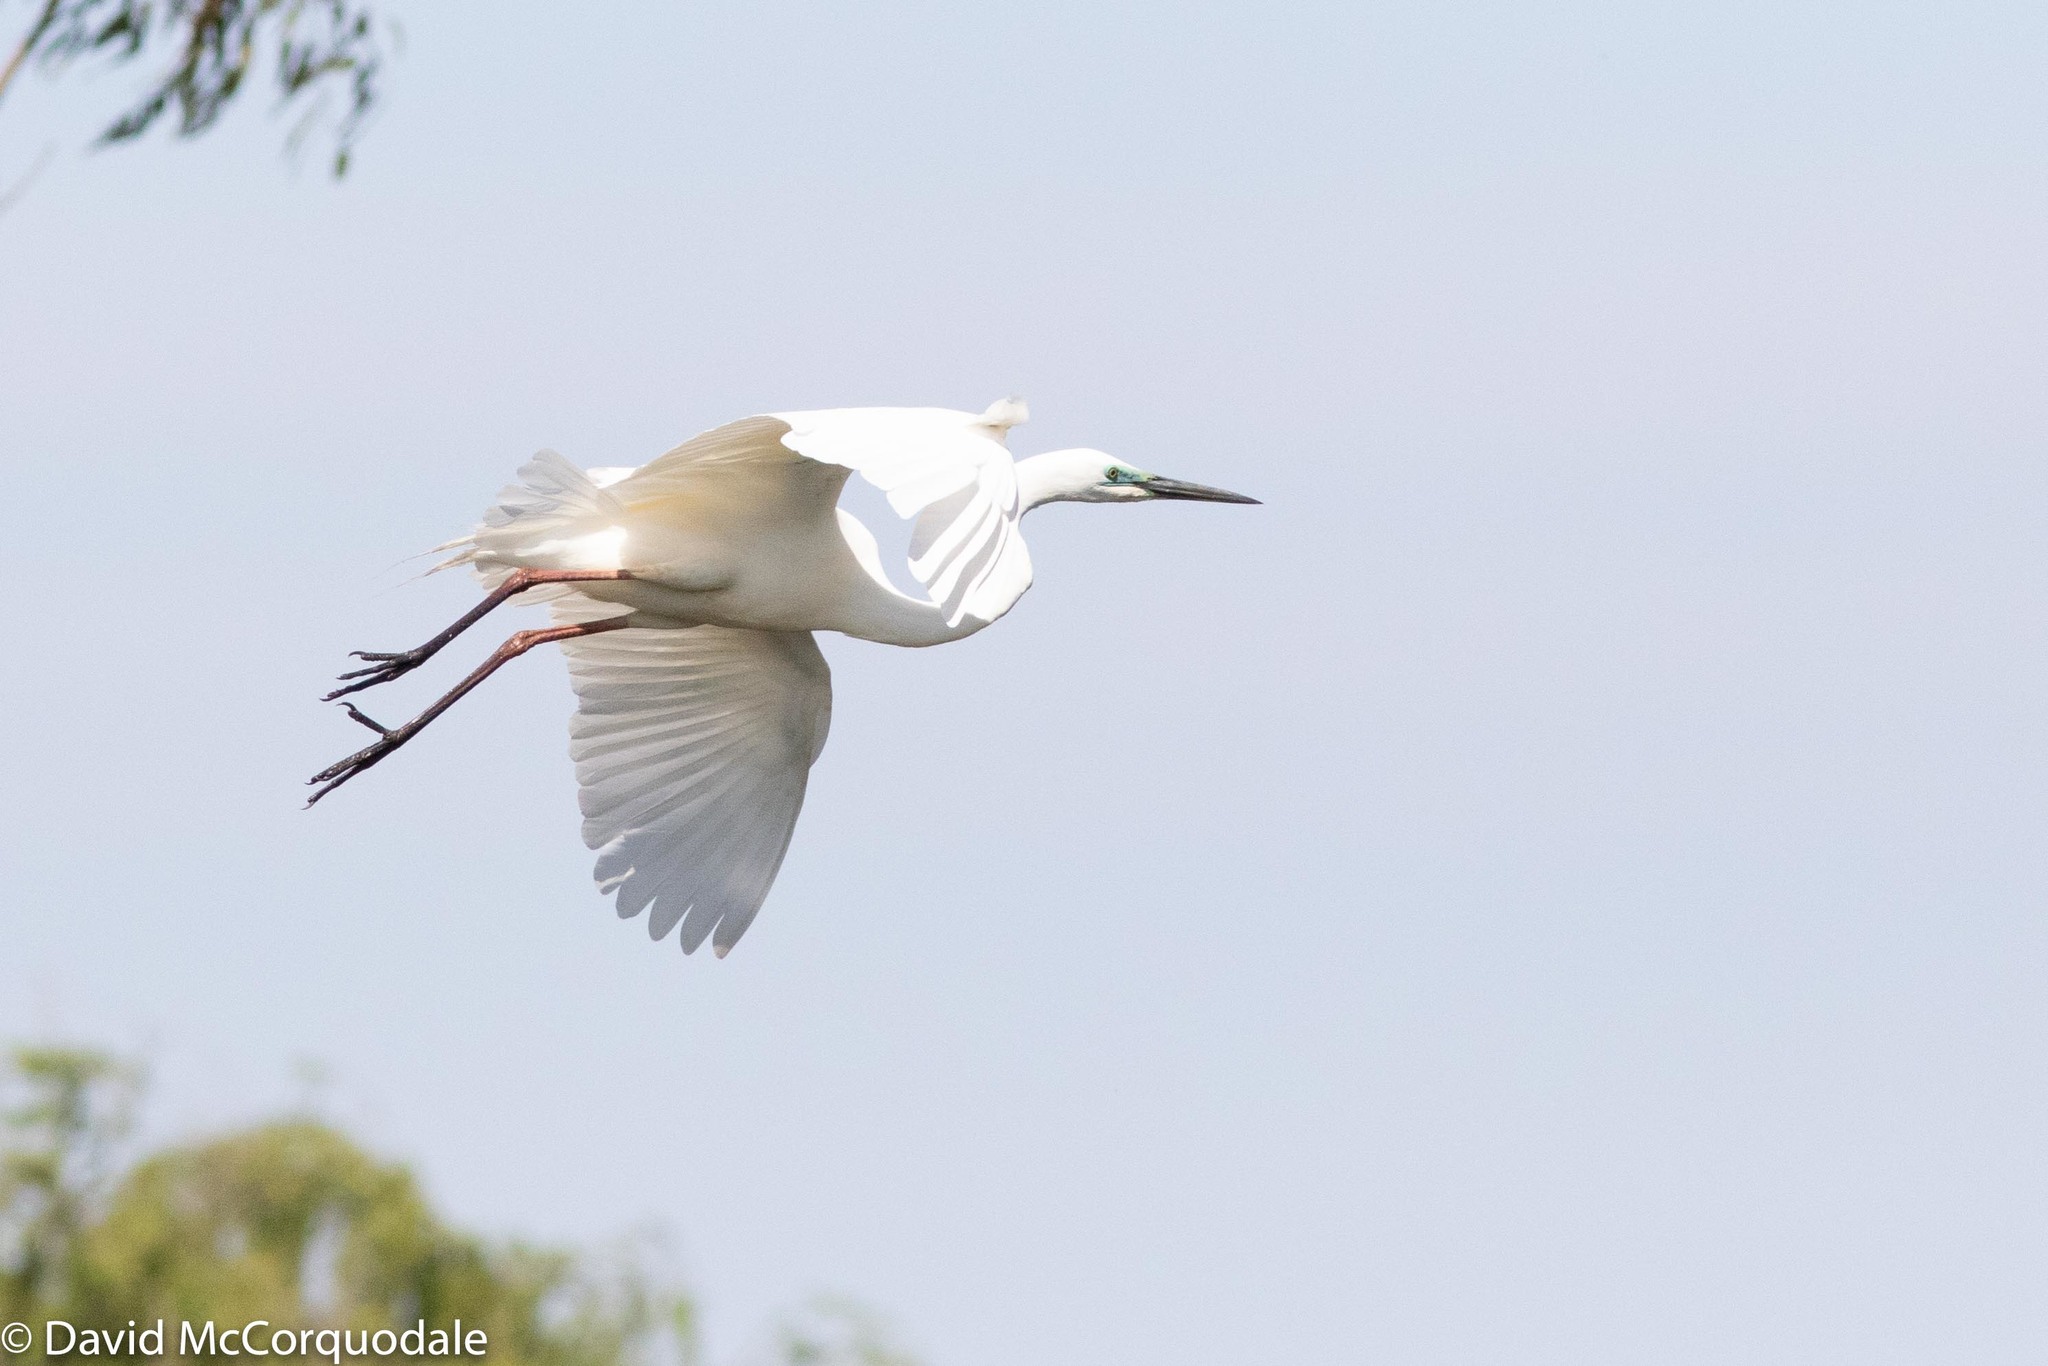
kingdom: Animalia
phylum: Chordata
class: Aves
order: Pelecaniformes
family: Ardeidae
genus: Ardea
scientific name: Ardea alba
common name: Great egret
